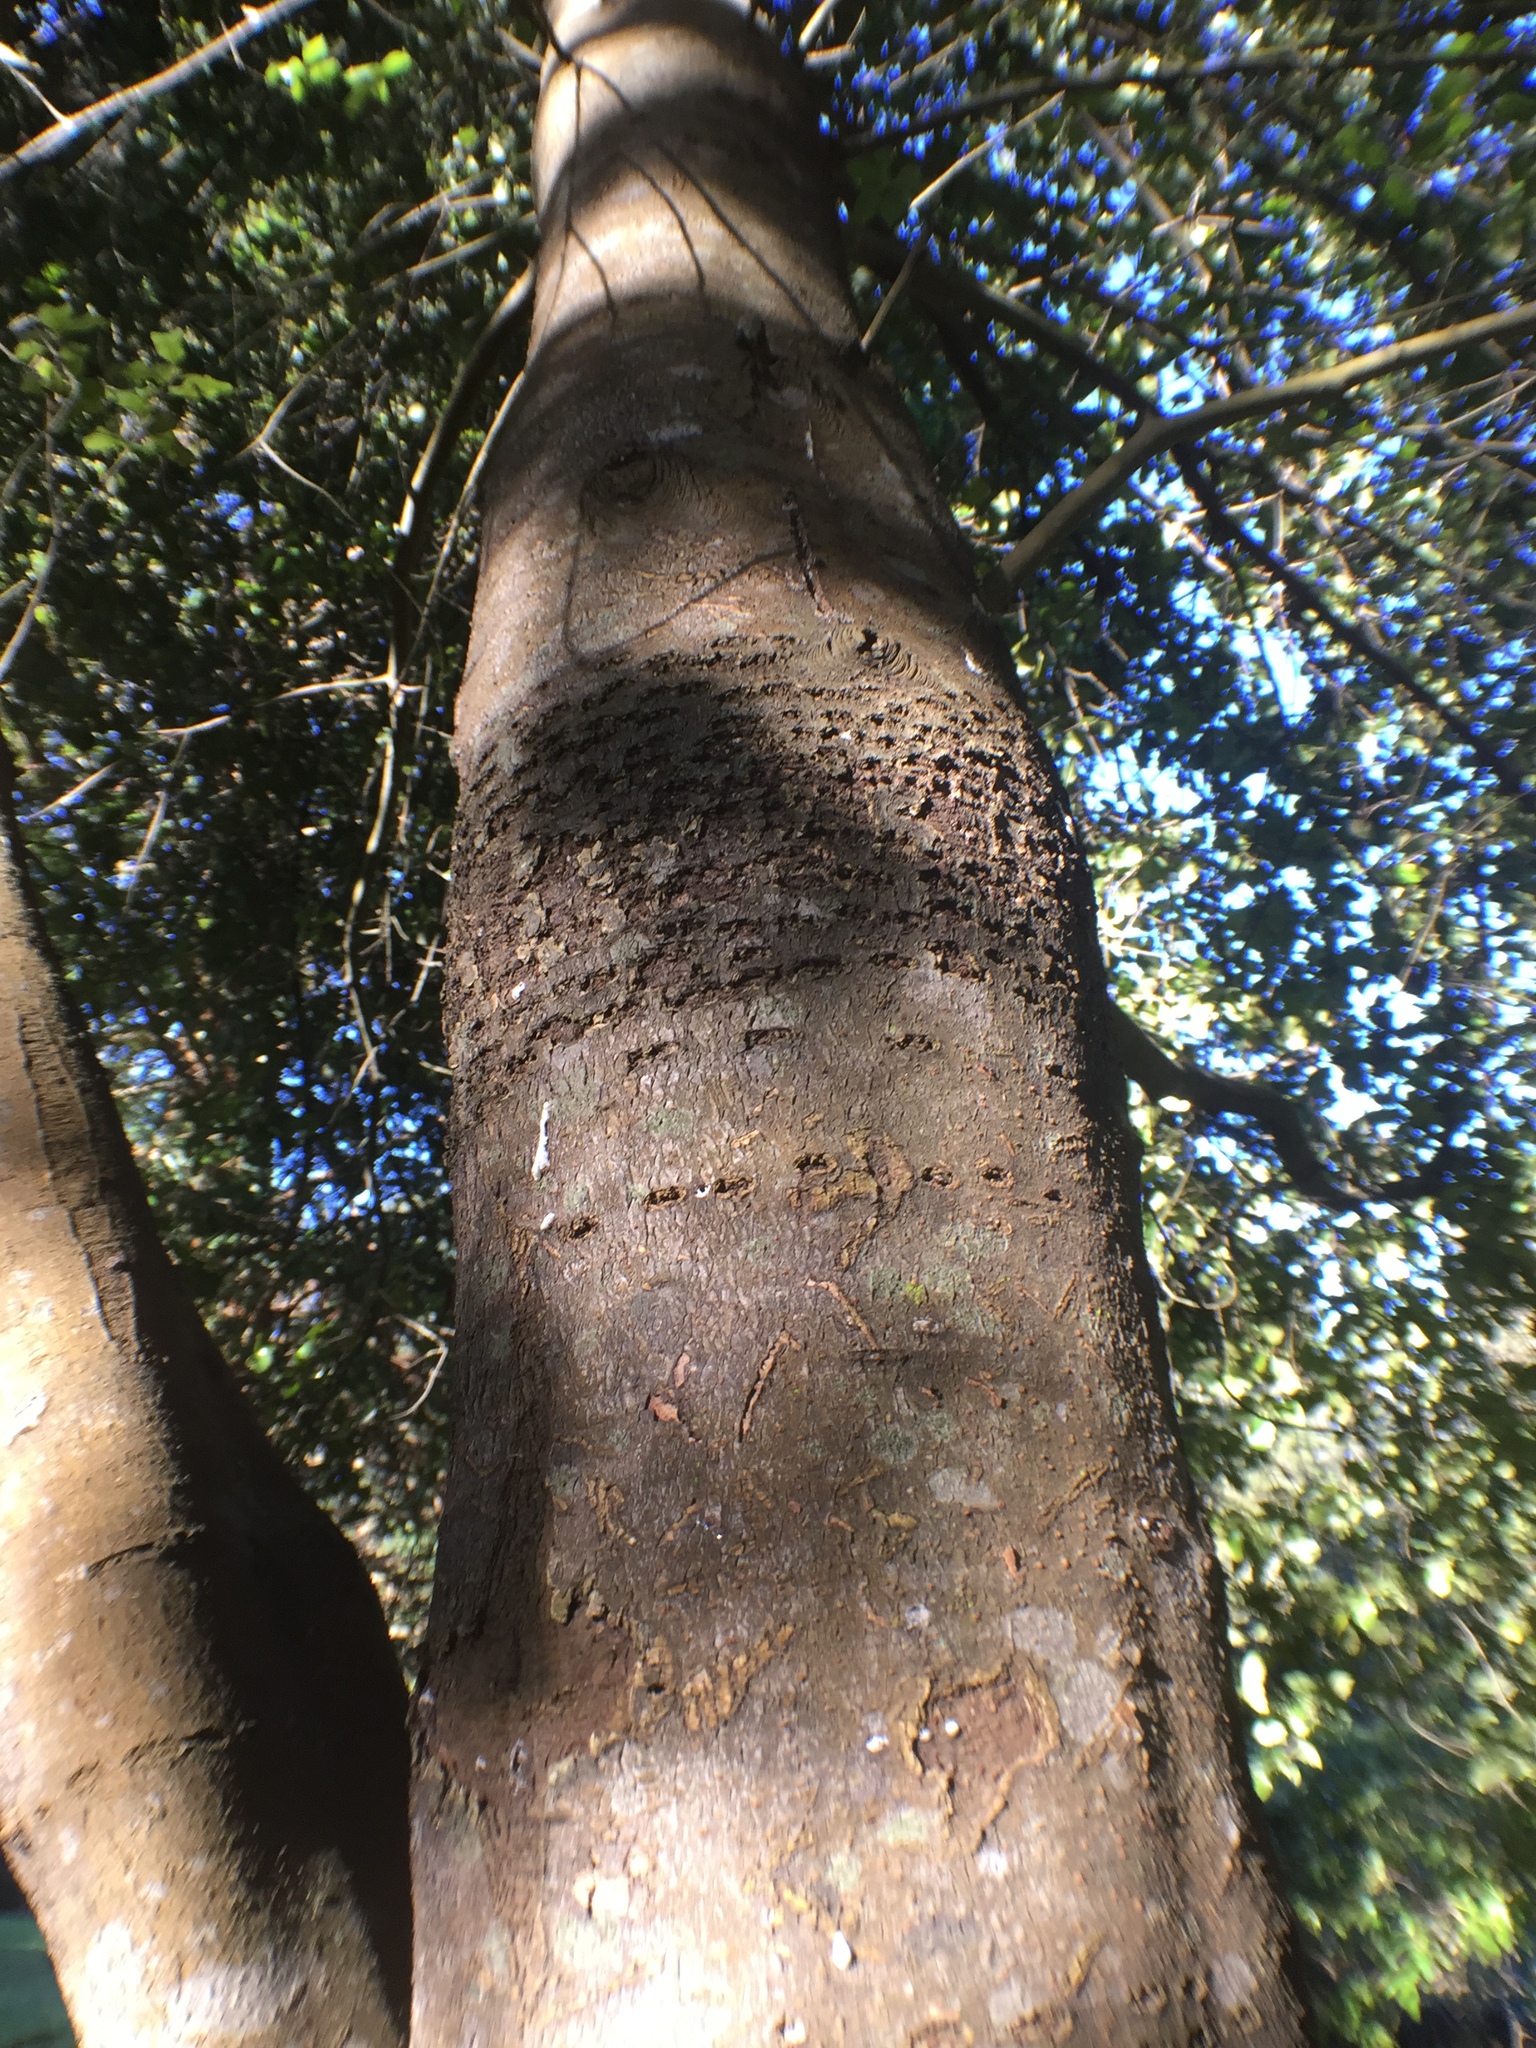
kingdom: Animalia
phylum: Chordata
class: Aves
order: Piciformes
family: Picidae
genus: Sphyrapicus
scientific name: Sphyrapicus
